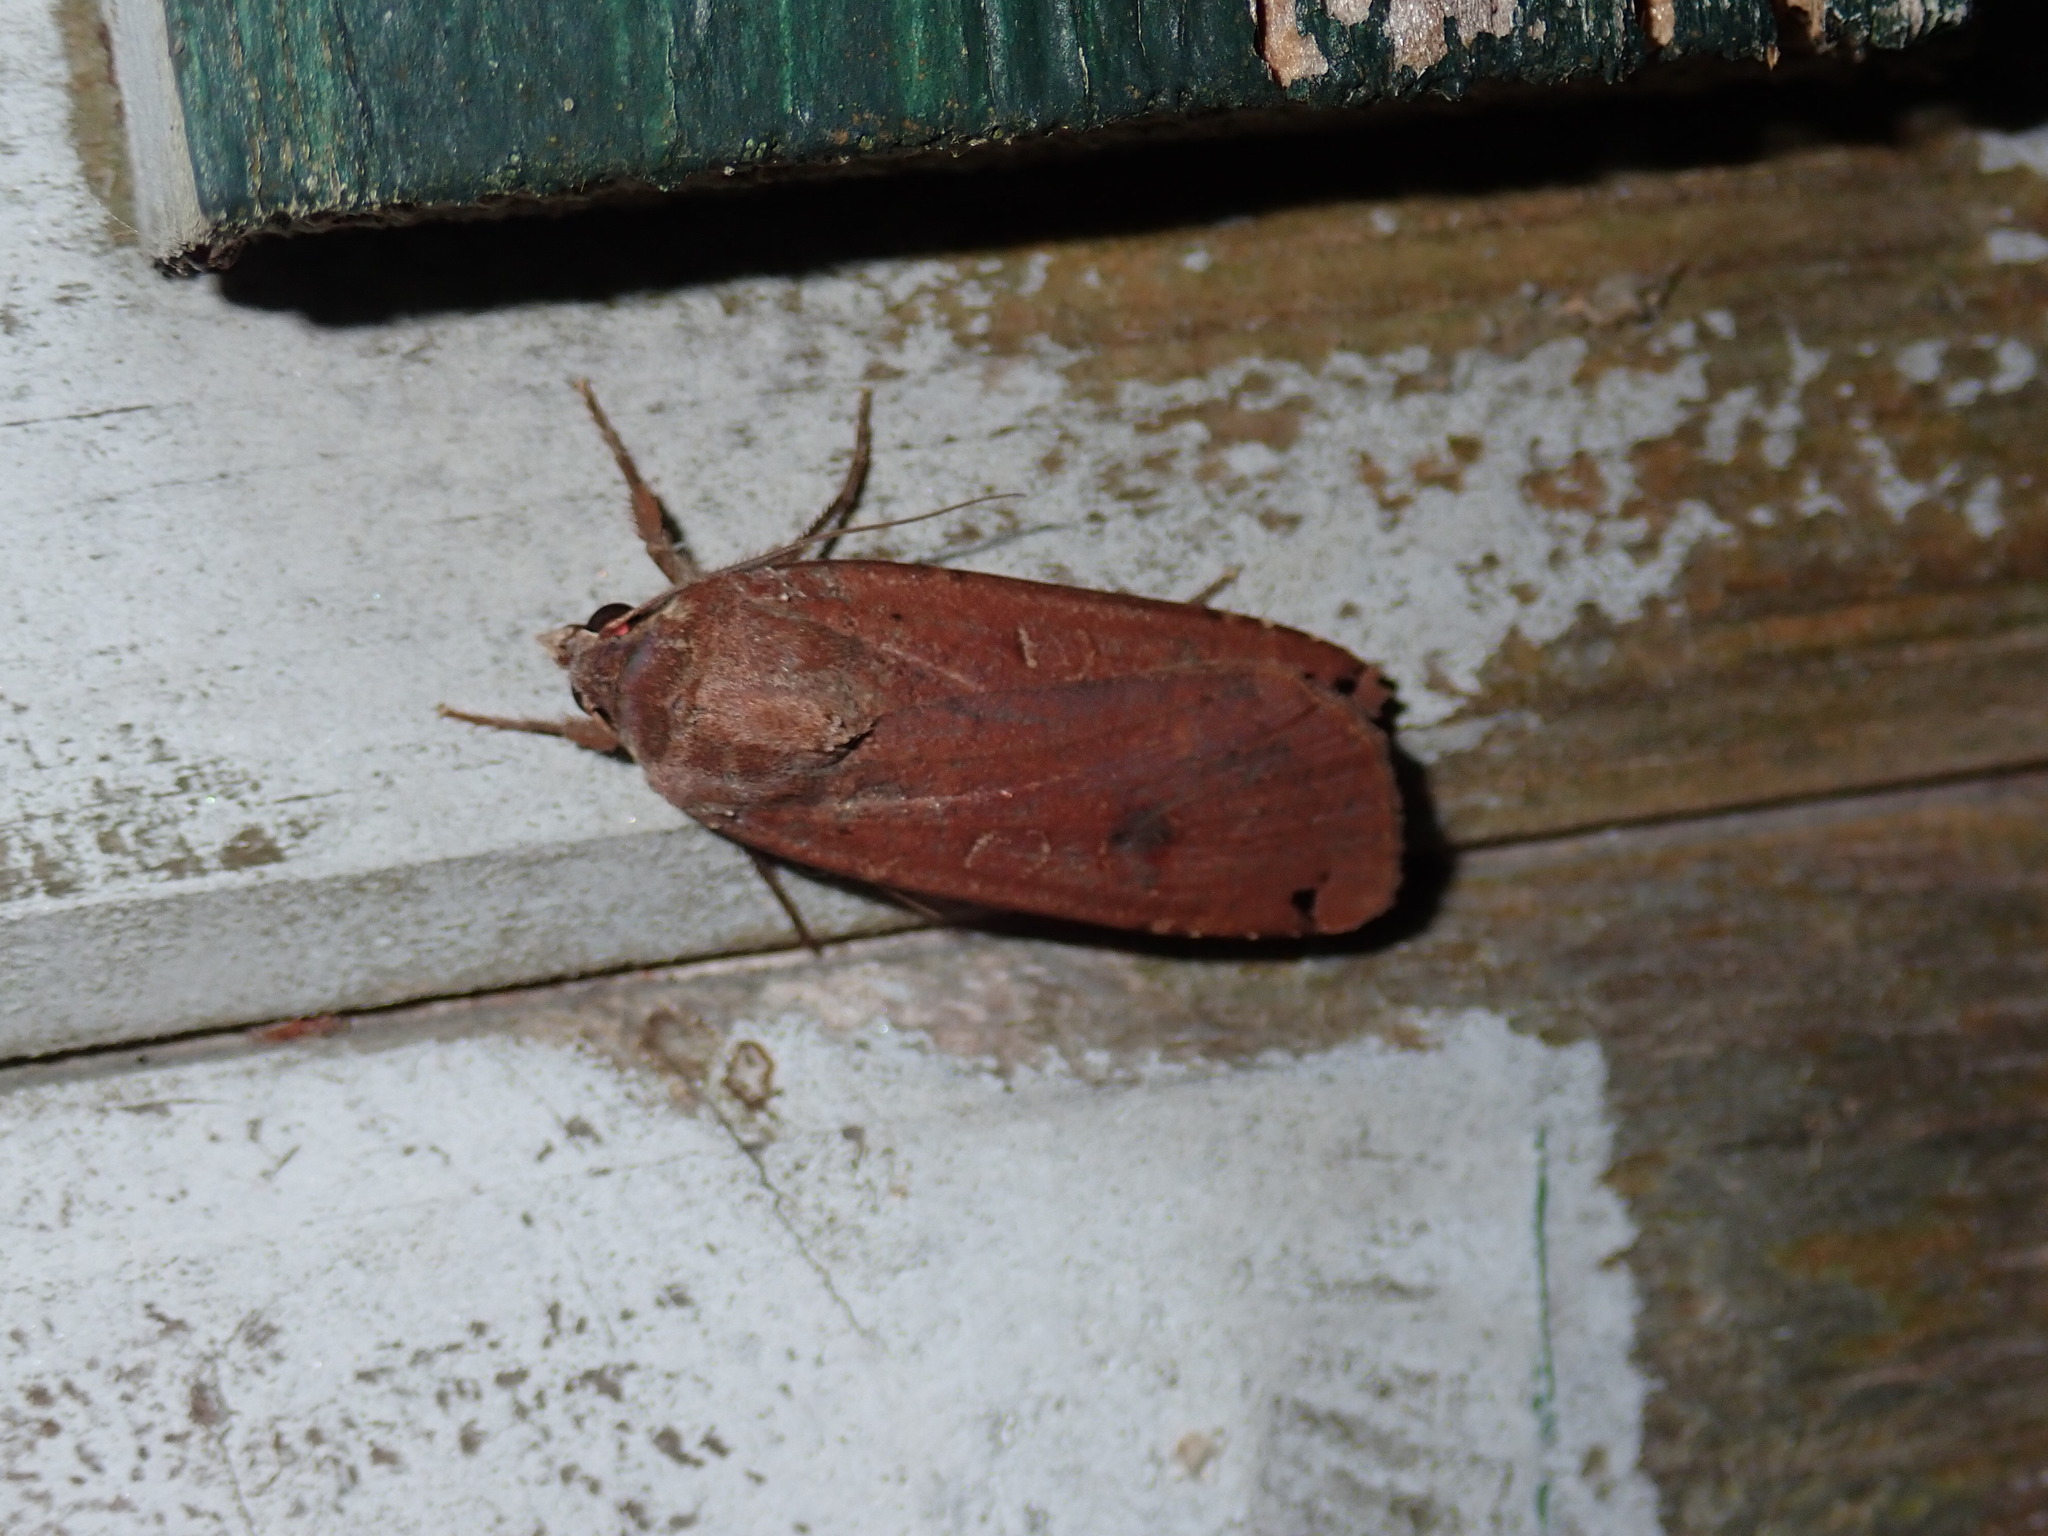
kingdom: Animalia
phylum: Arthropoda
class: Insecta
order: Lepidoptera
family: Noctuidae
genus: Noctua
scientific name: Noctua pronuba
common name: Large yellow underwing
